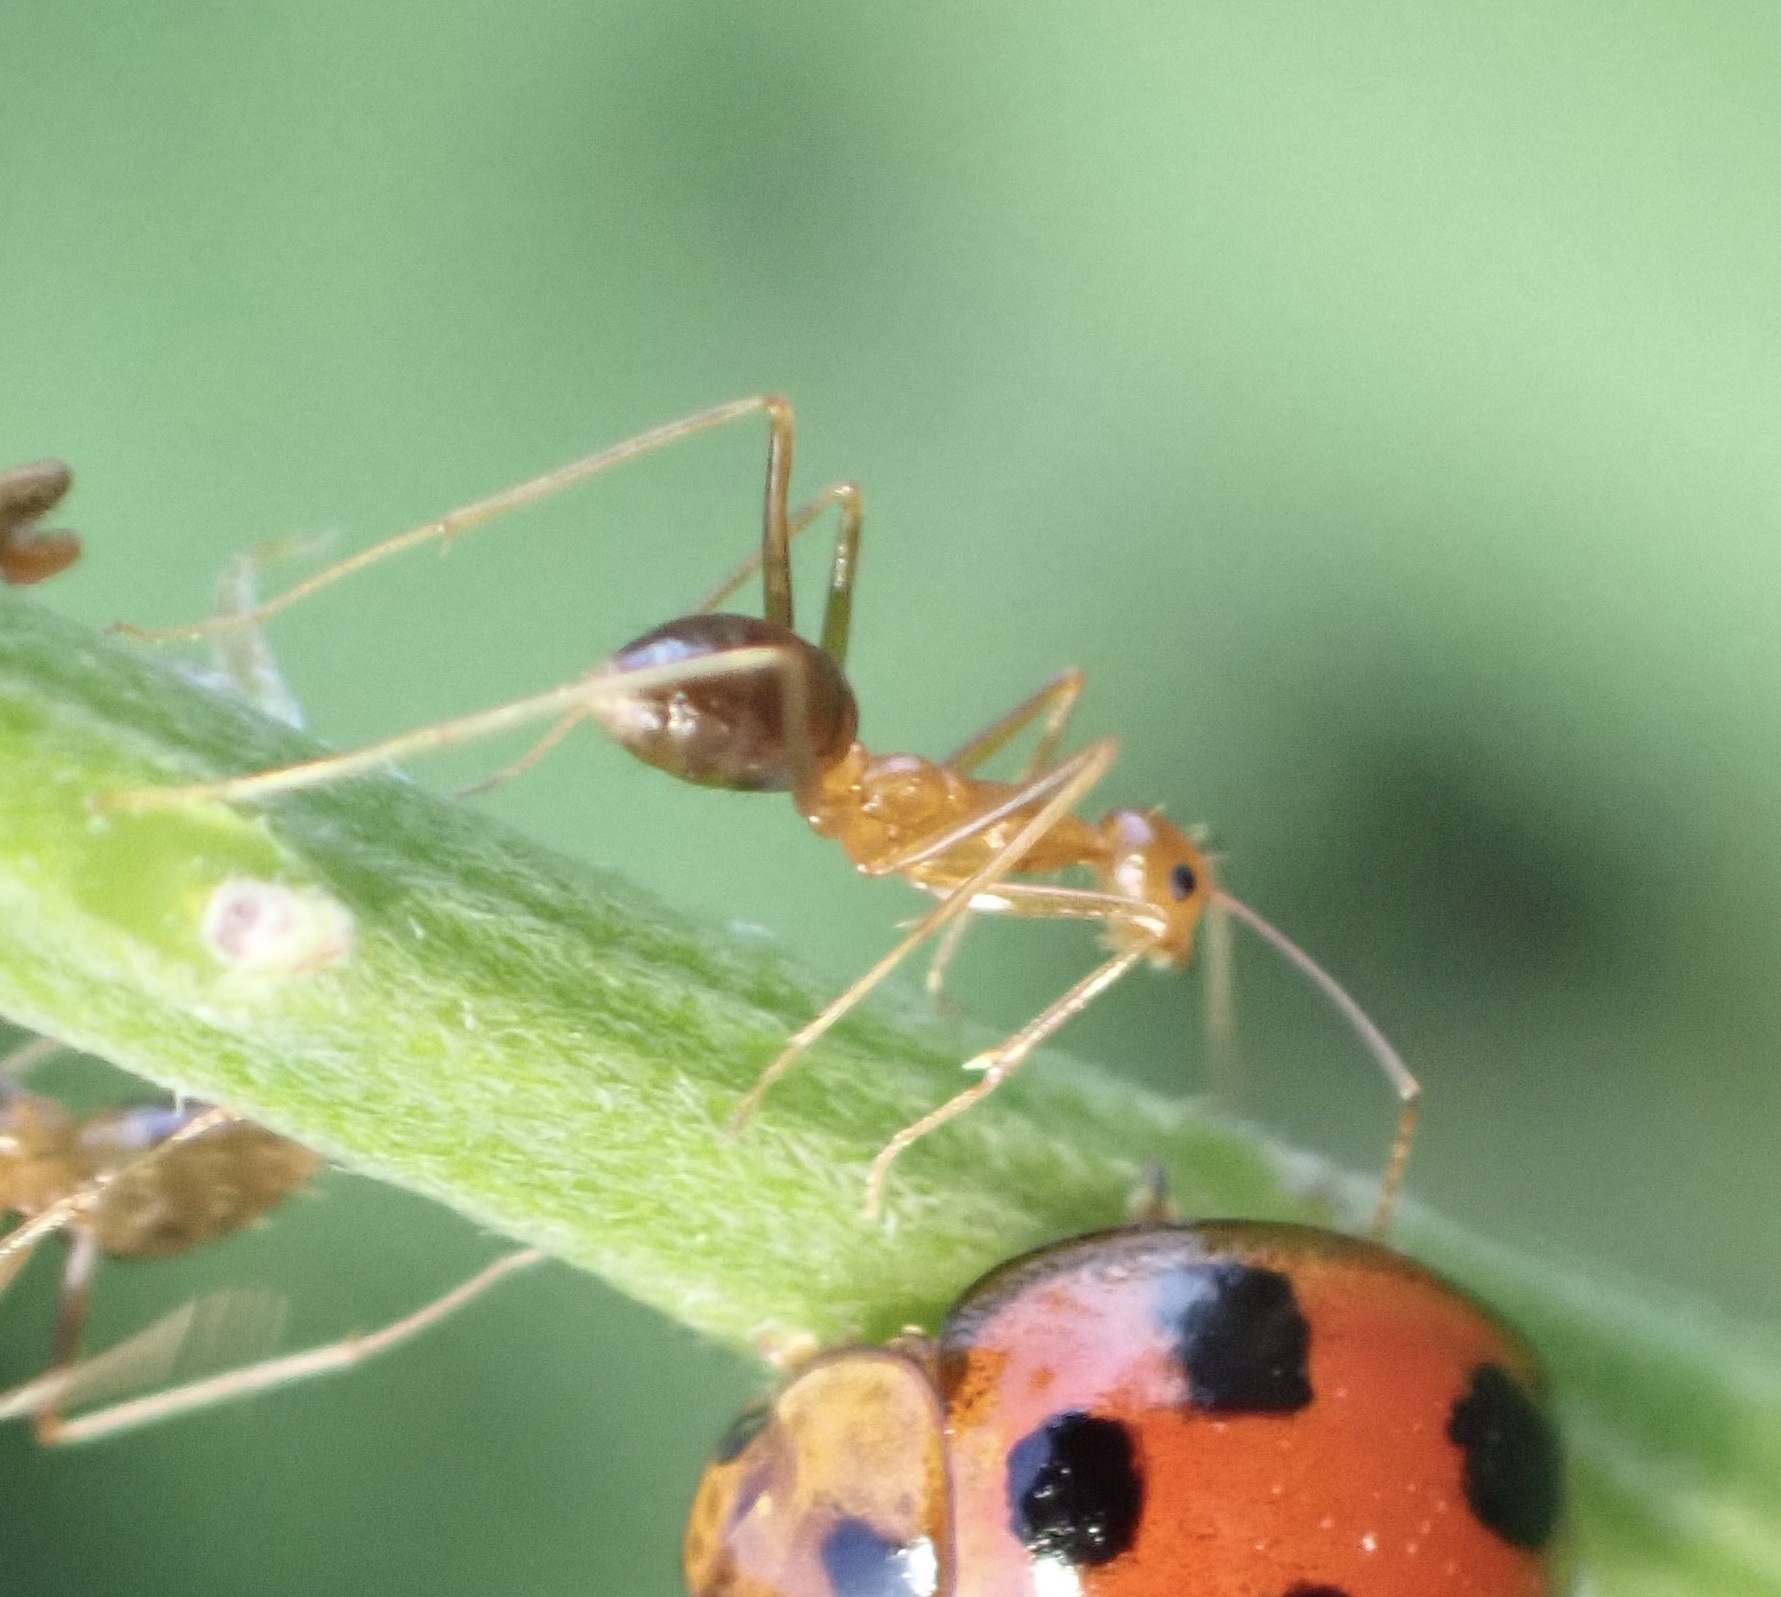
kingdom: Animalia
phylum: Arthropoda
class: Insecta
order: Hymenoptera
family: Formicidae
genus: Anoplolepis
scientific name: Anoplolepis gracilipes
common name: Ant
